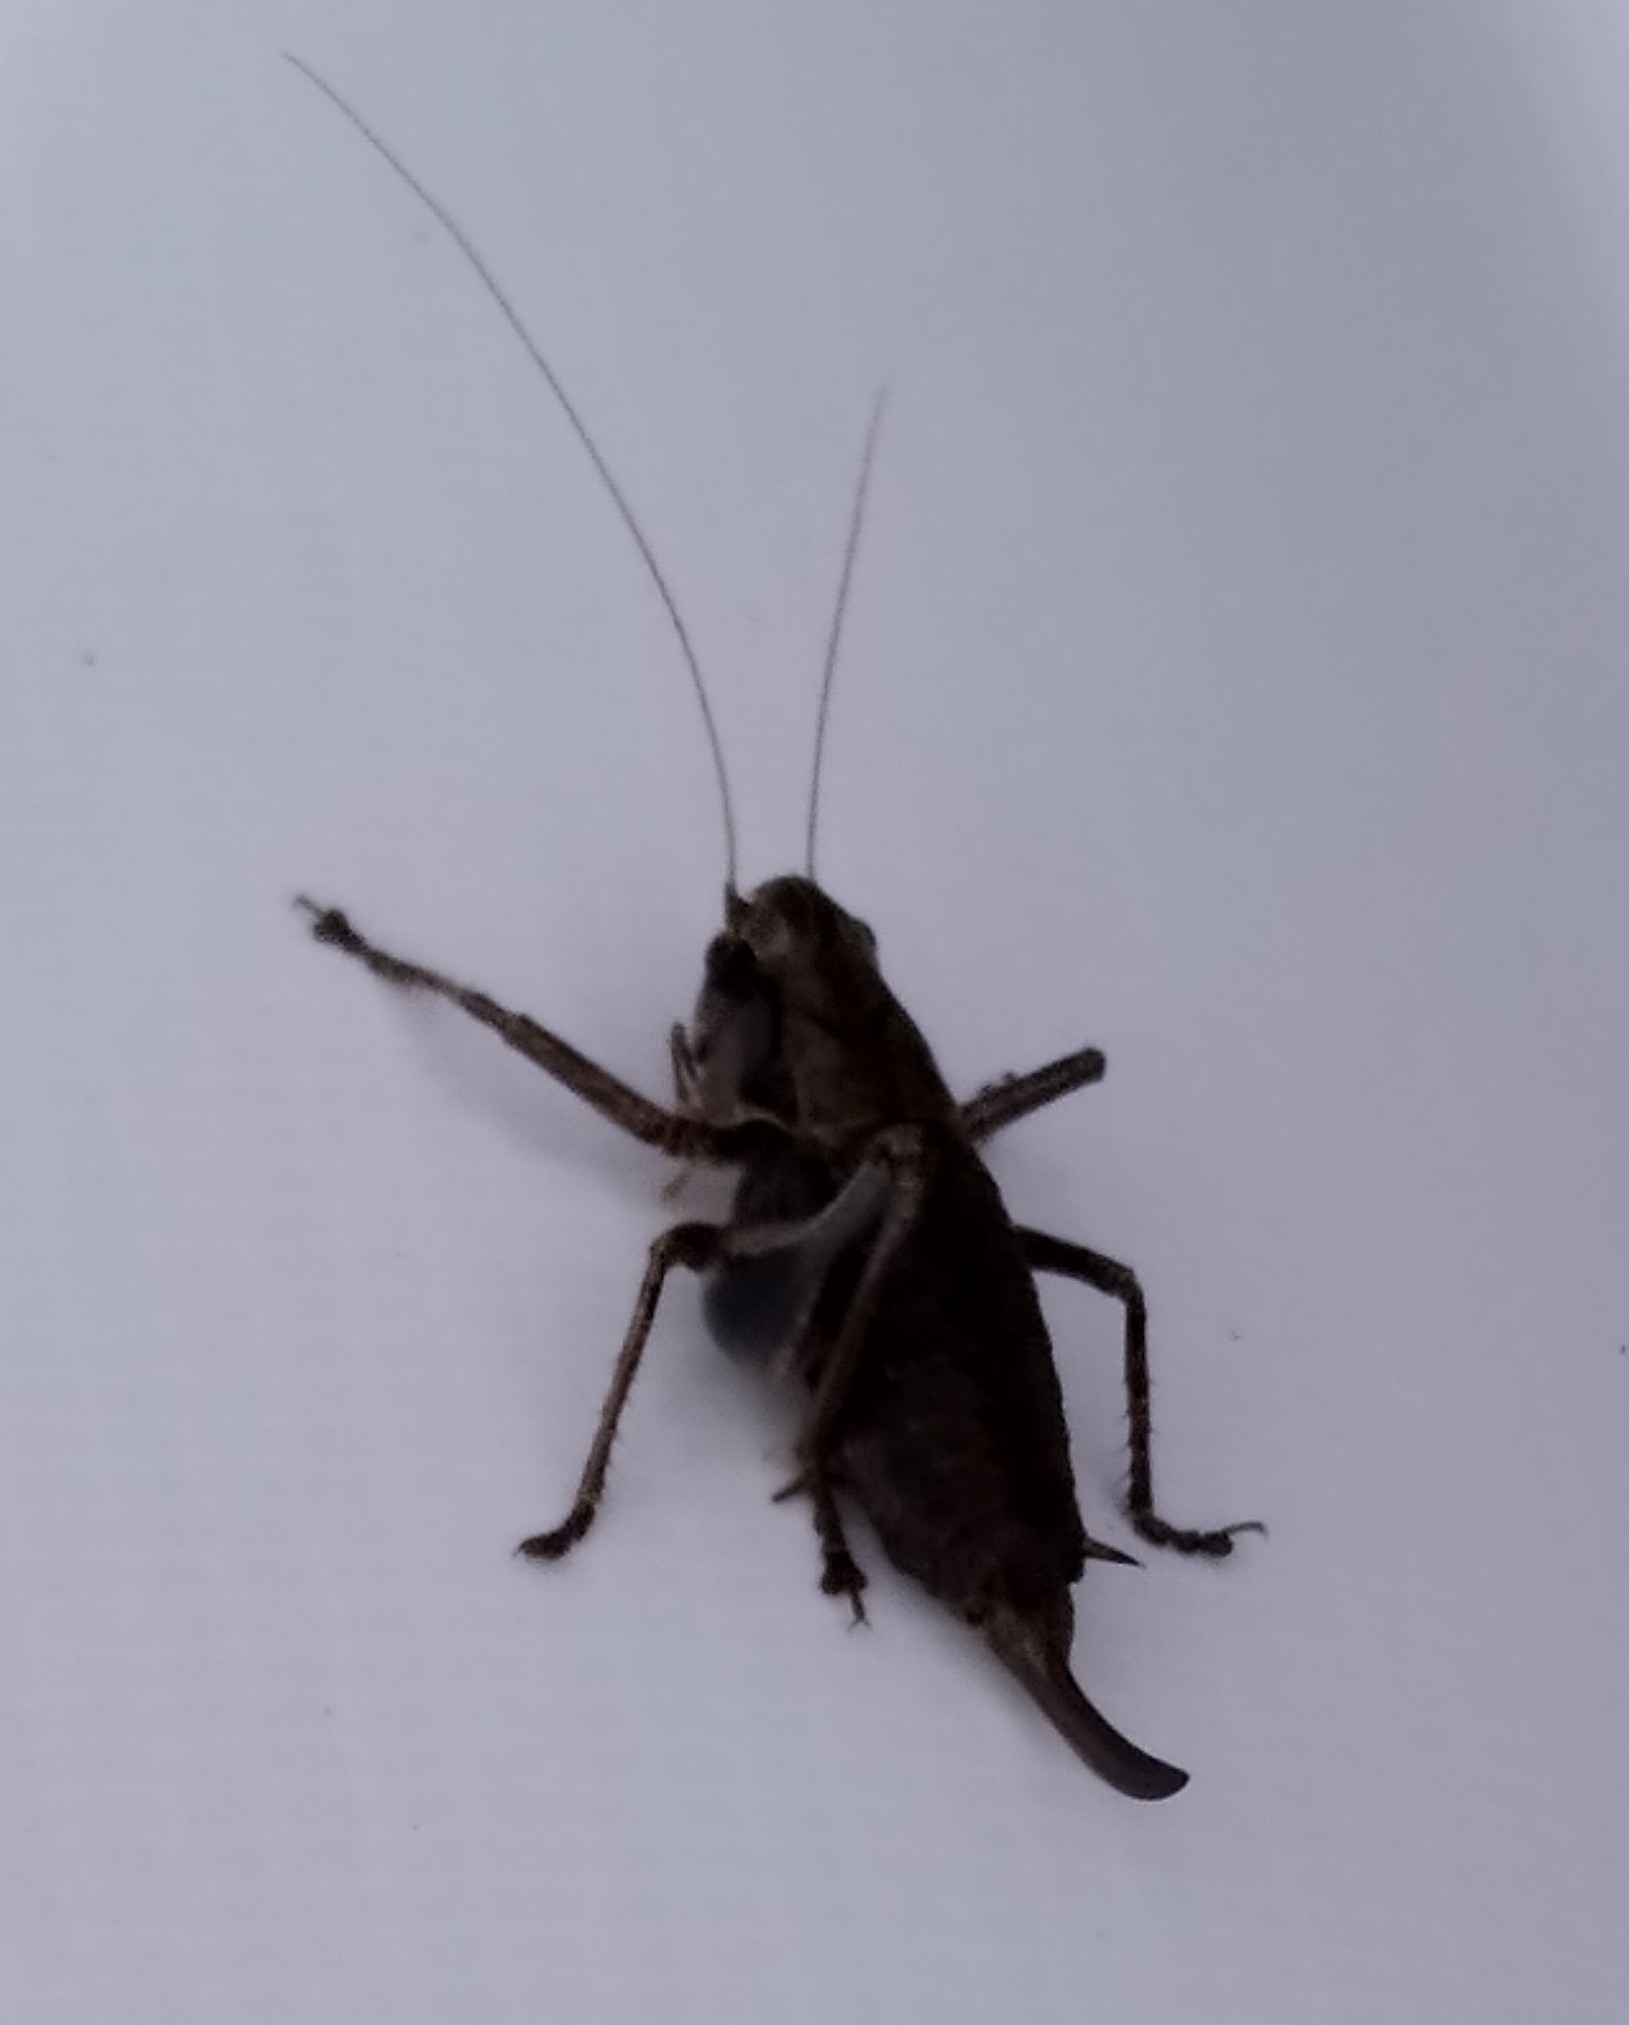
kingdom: Animalia
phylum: Arthropoda
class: Insecta
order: Orthoptera
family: Tettigoniidae
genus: Pholidoptera
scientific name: Pholidoptera griseoaptera
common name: Dark bush-cricket
